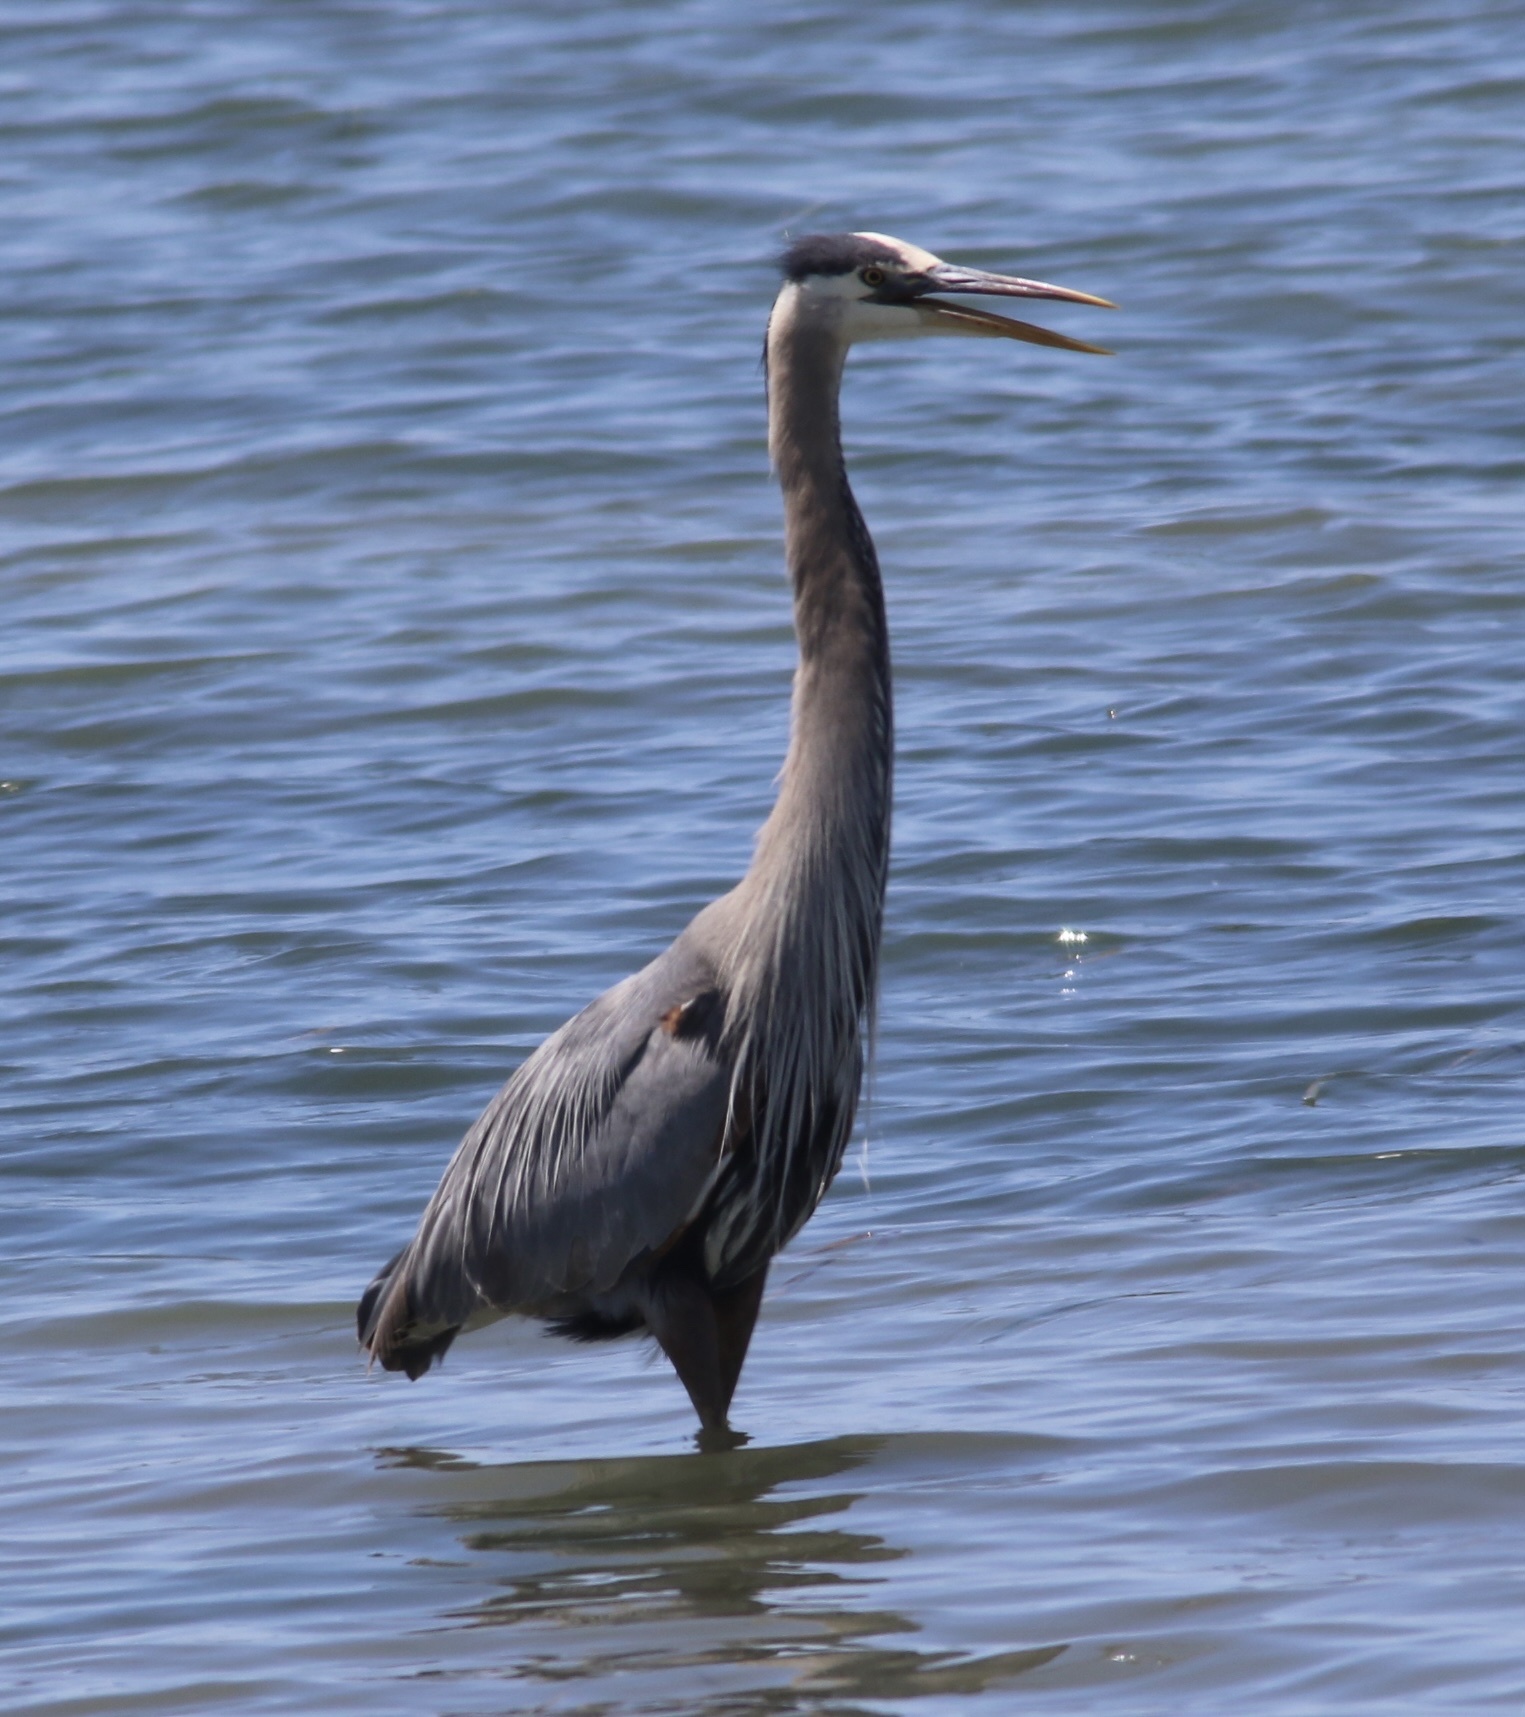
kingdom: Animalia
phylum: Chordata
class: Aves
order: Pelecaniformes
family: Ardeidae
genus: Ardea
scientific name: Ardea herodias
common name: Great blue heron
